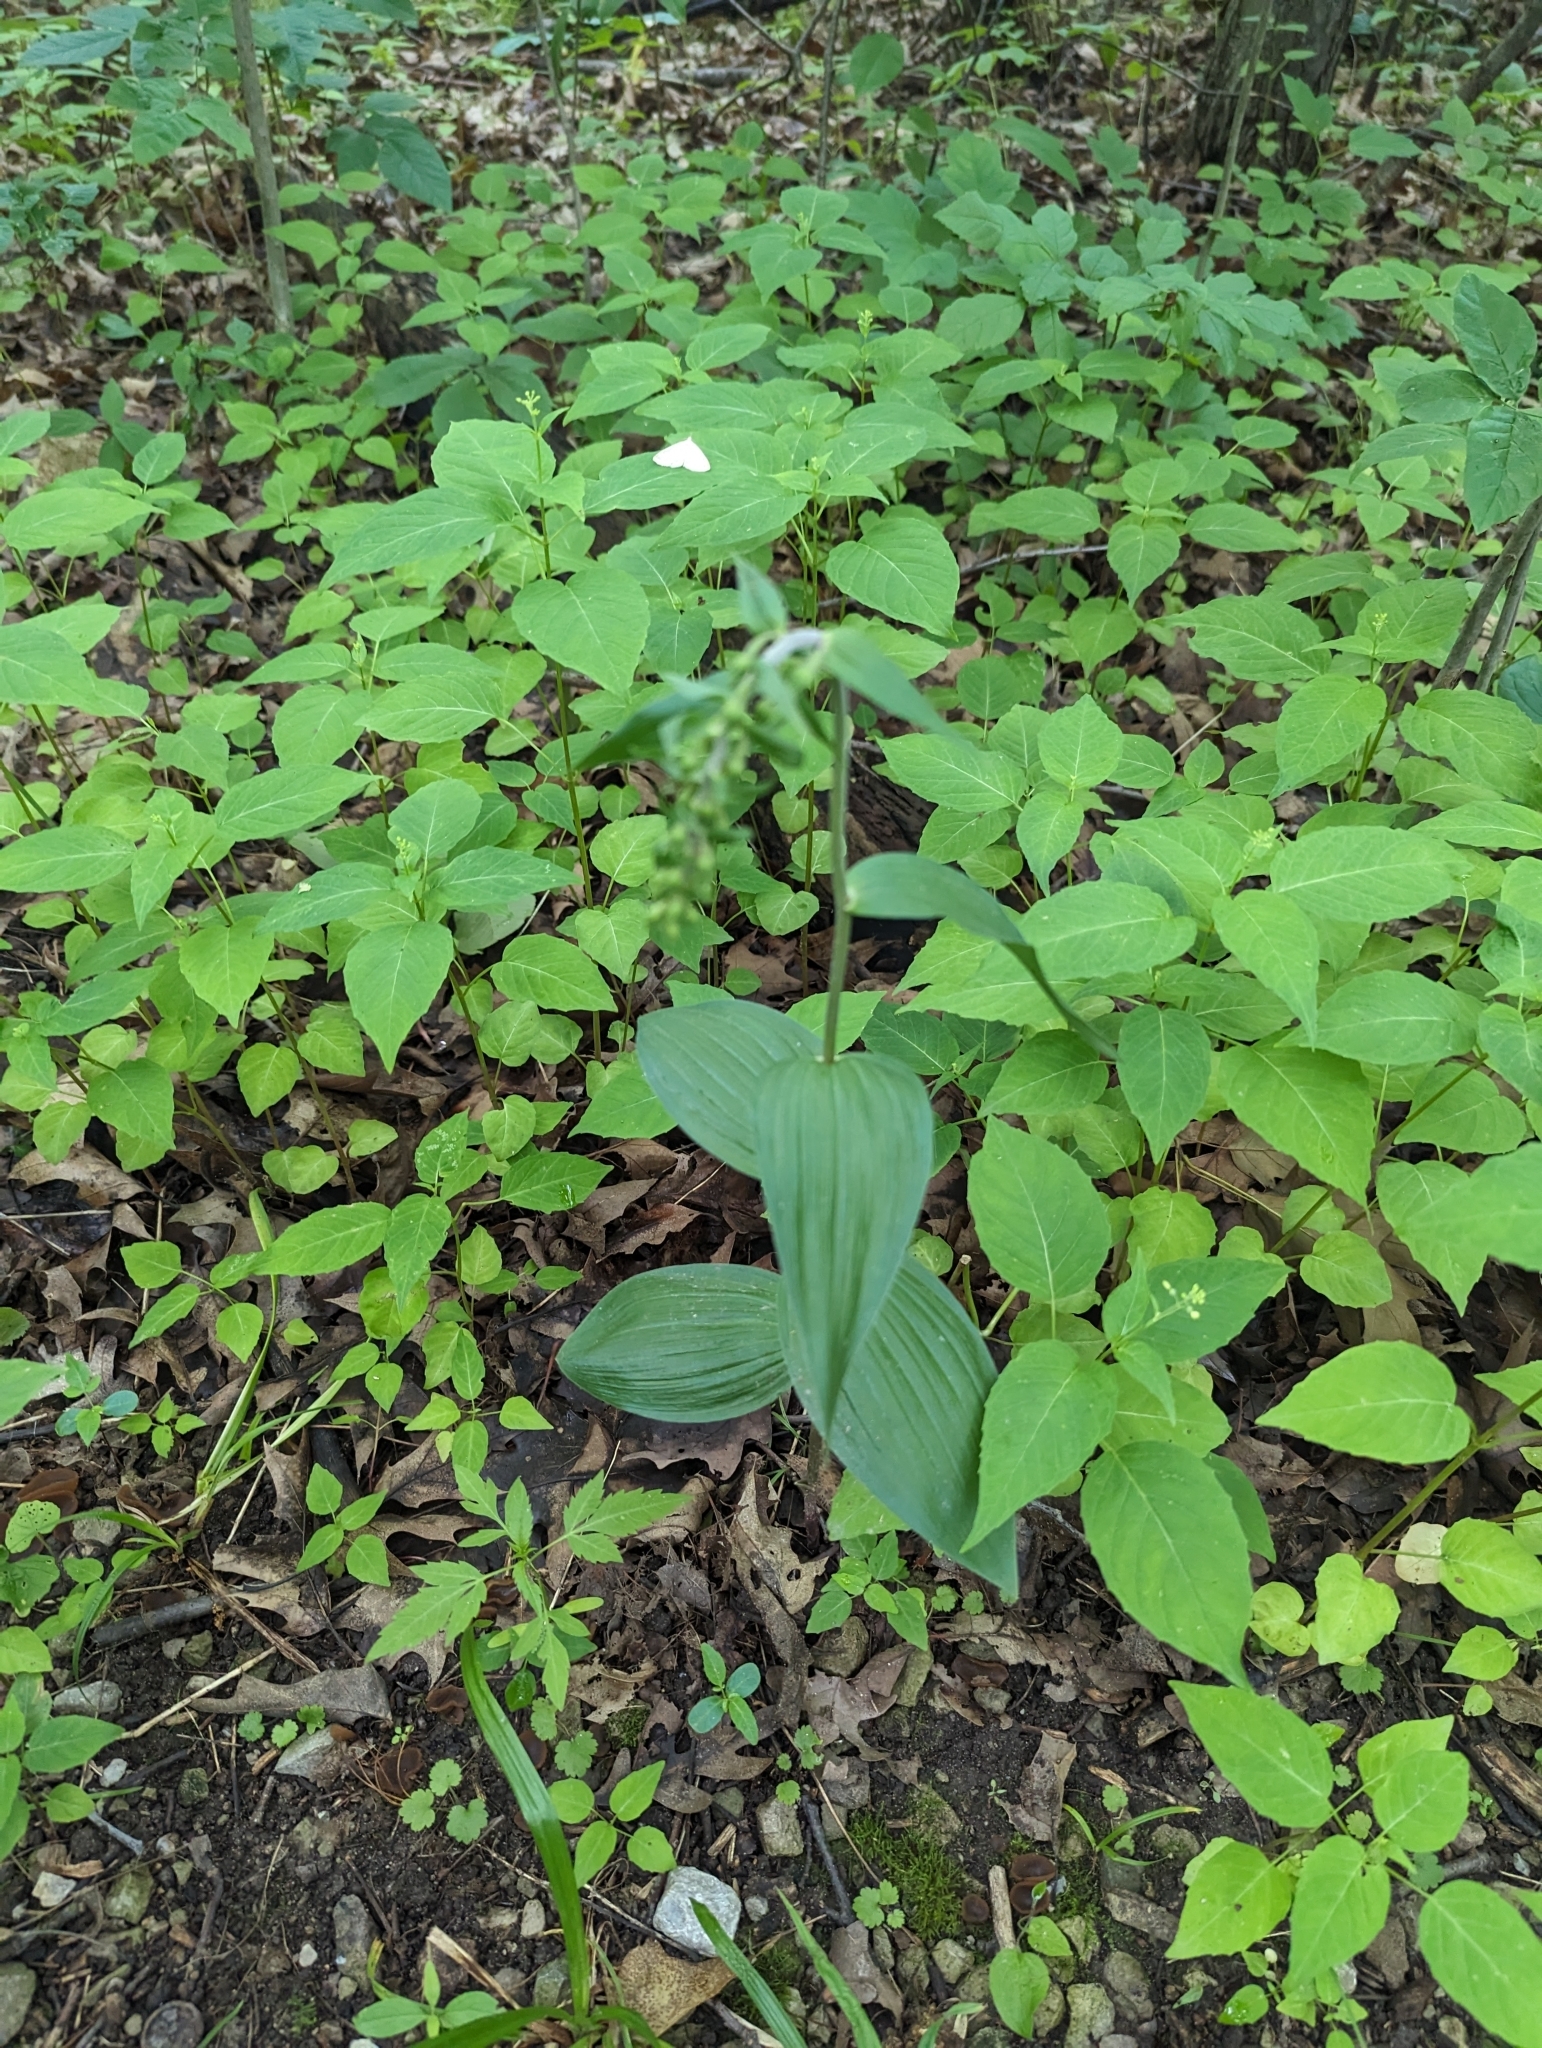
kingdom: Plantae
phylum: Tracheophyta
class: Liliopsida
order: Asparagales
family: Orchidaceae
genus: Epipactis
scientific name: Epipactis helleborine
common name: Broad-leaved helleborine
